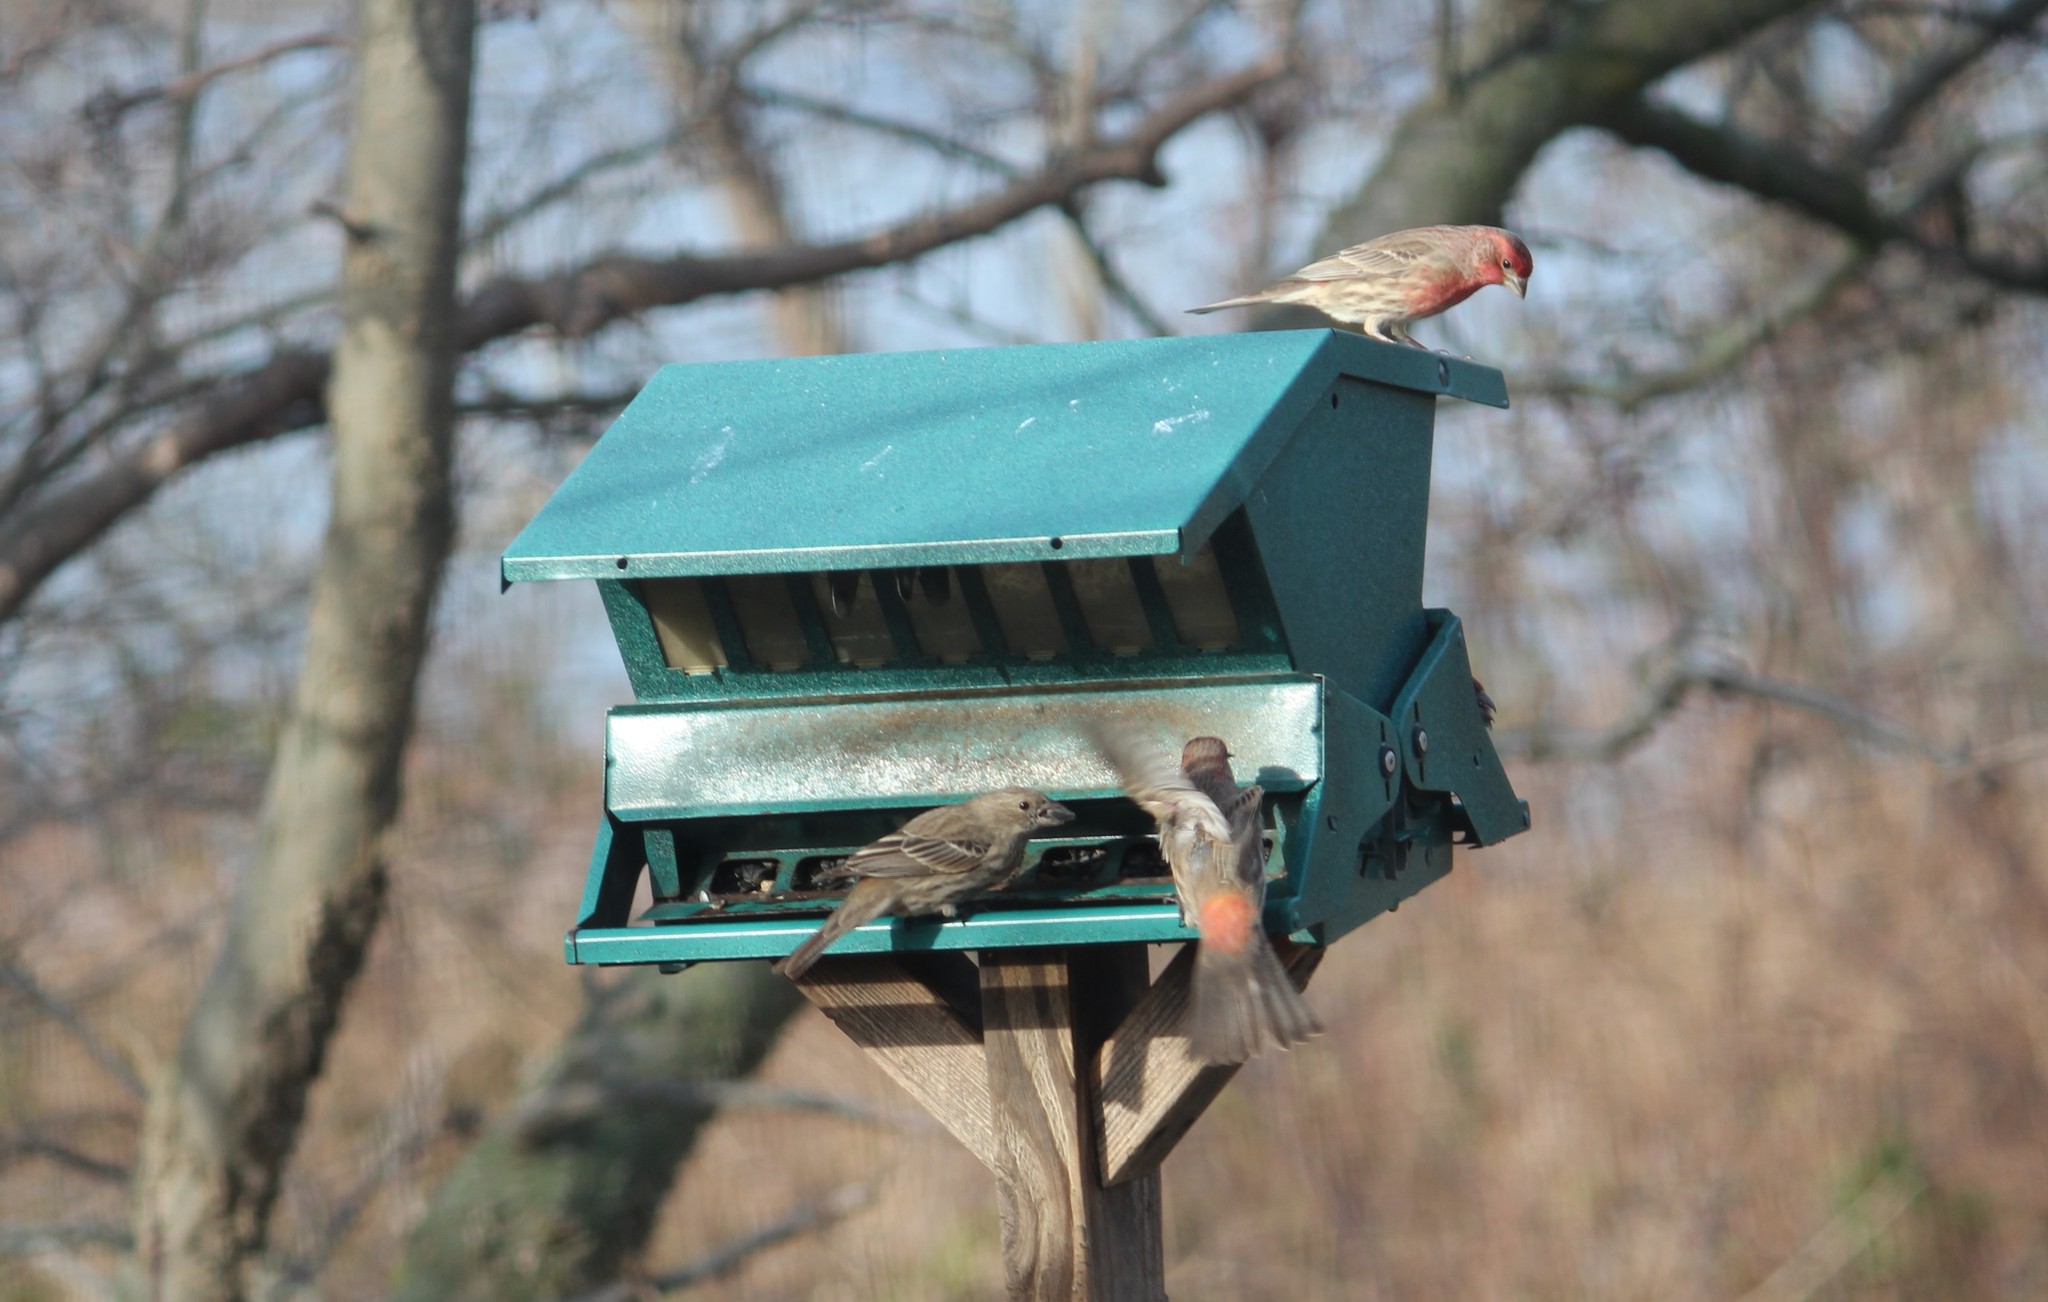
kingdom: Animalia
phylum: Chordata
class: Aves
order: Passeriformes
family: Fringillidae
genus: Haemorhous
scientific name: Haemorhous mexicanus
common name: House finch
